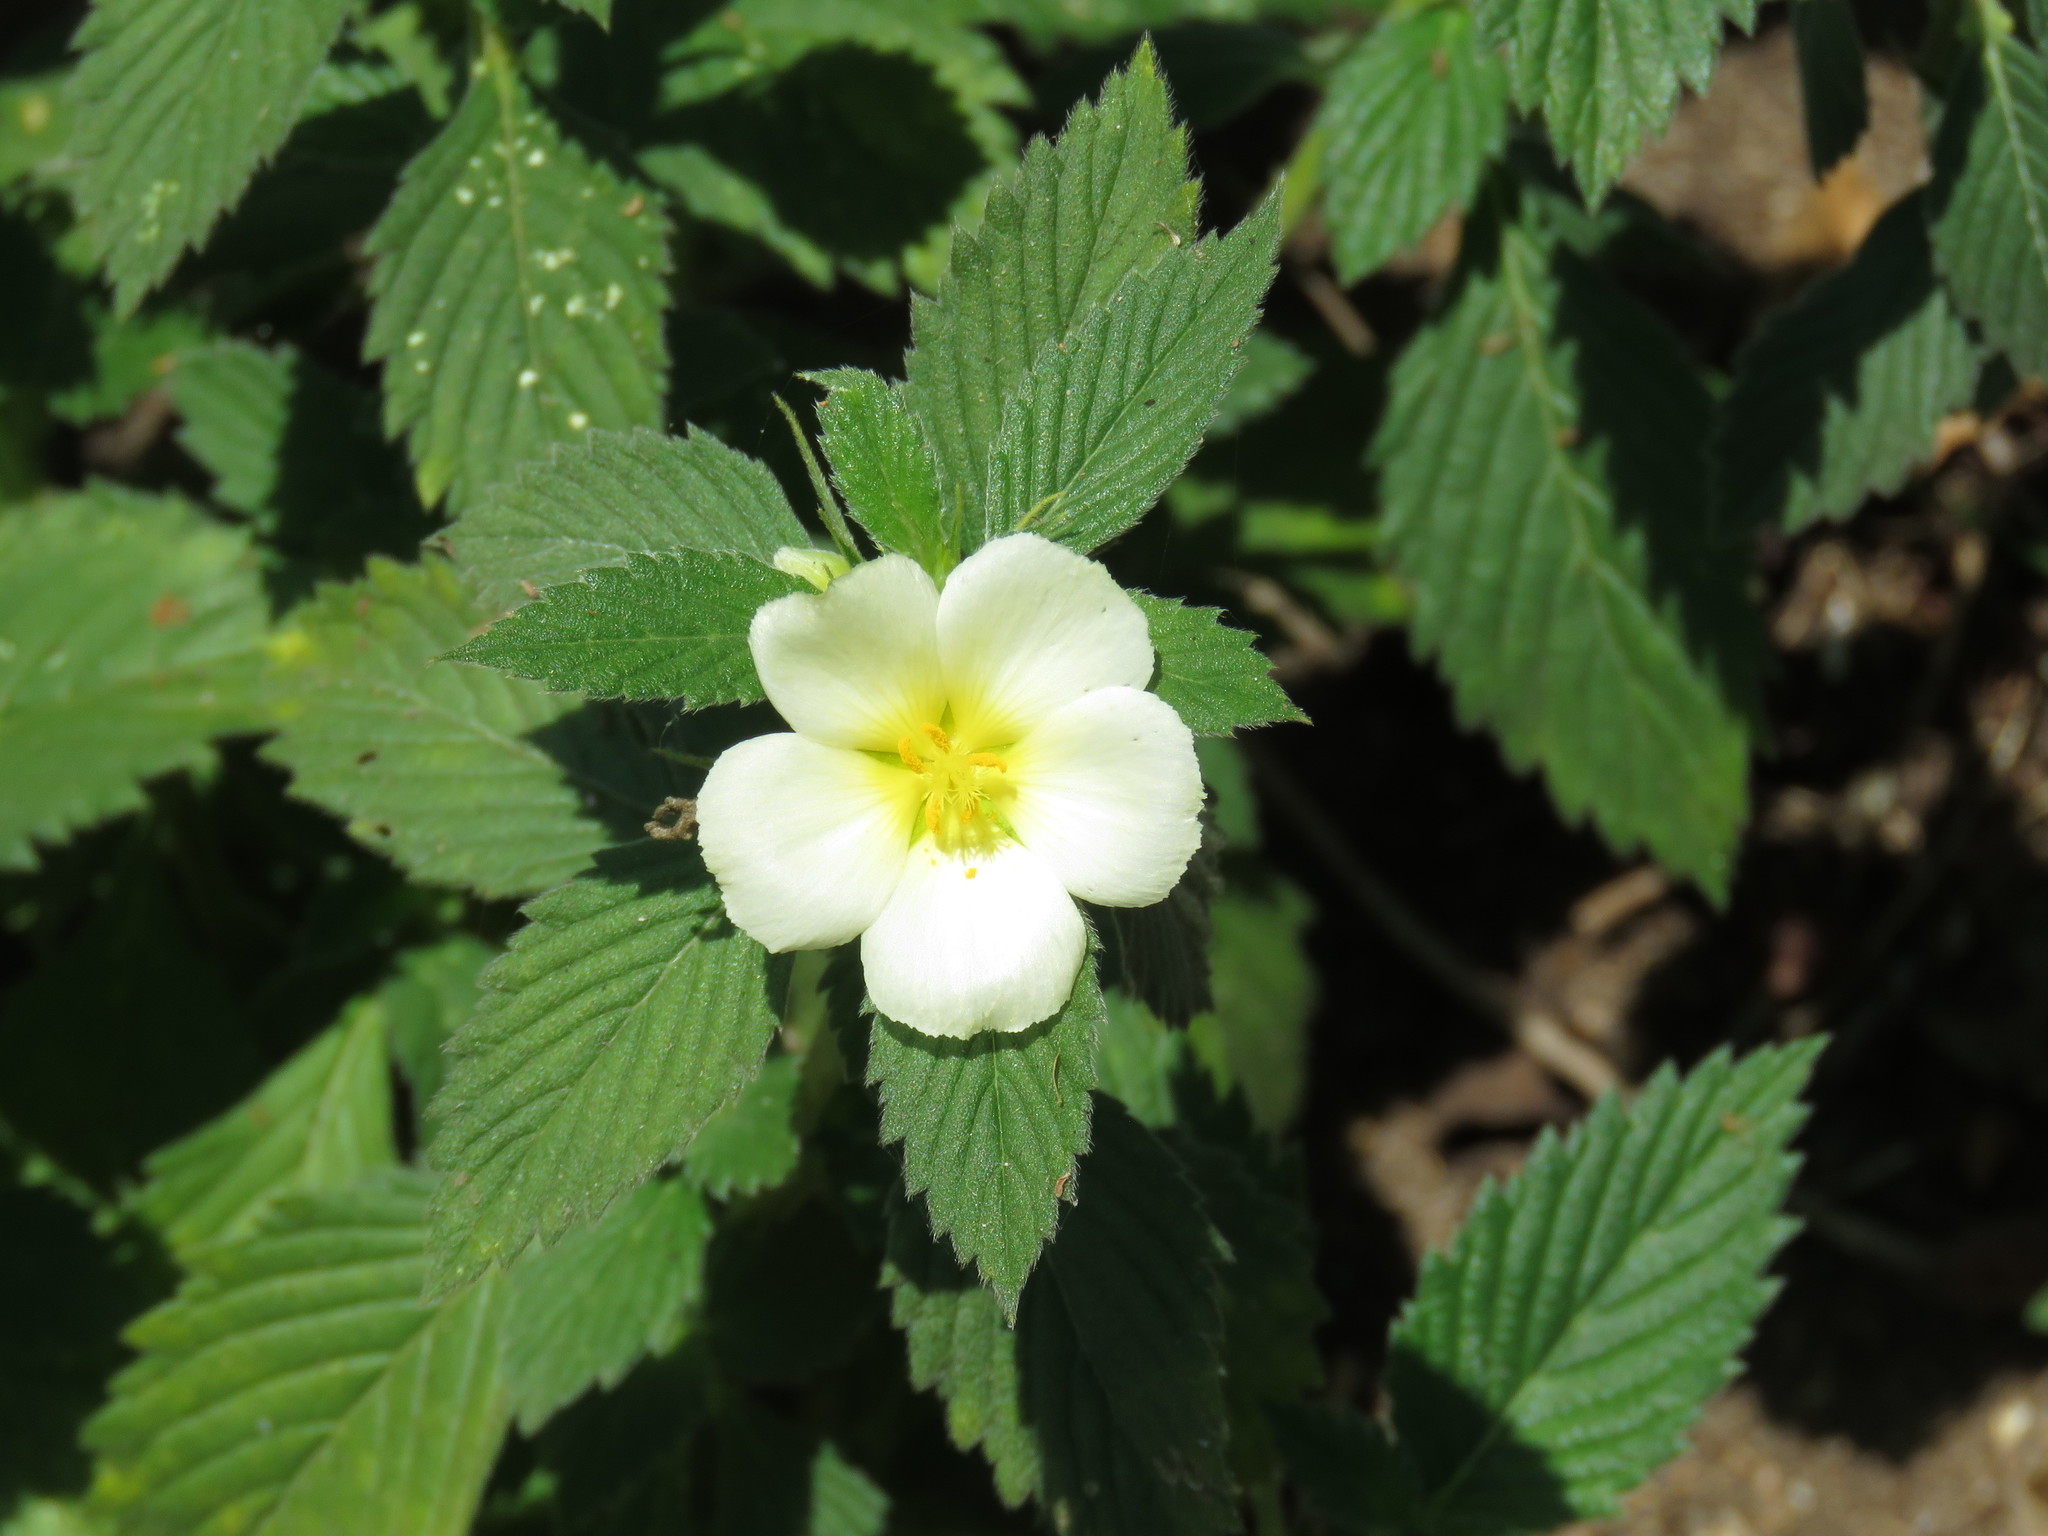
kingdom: Plantae
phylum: Tracheophyta
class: Magnoliopsida
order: Malpighiales
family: Turneraceae
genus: Turnera
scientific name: Turnera velutina
